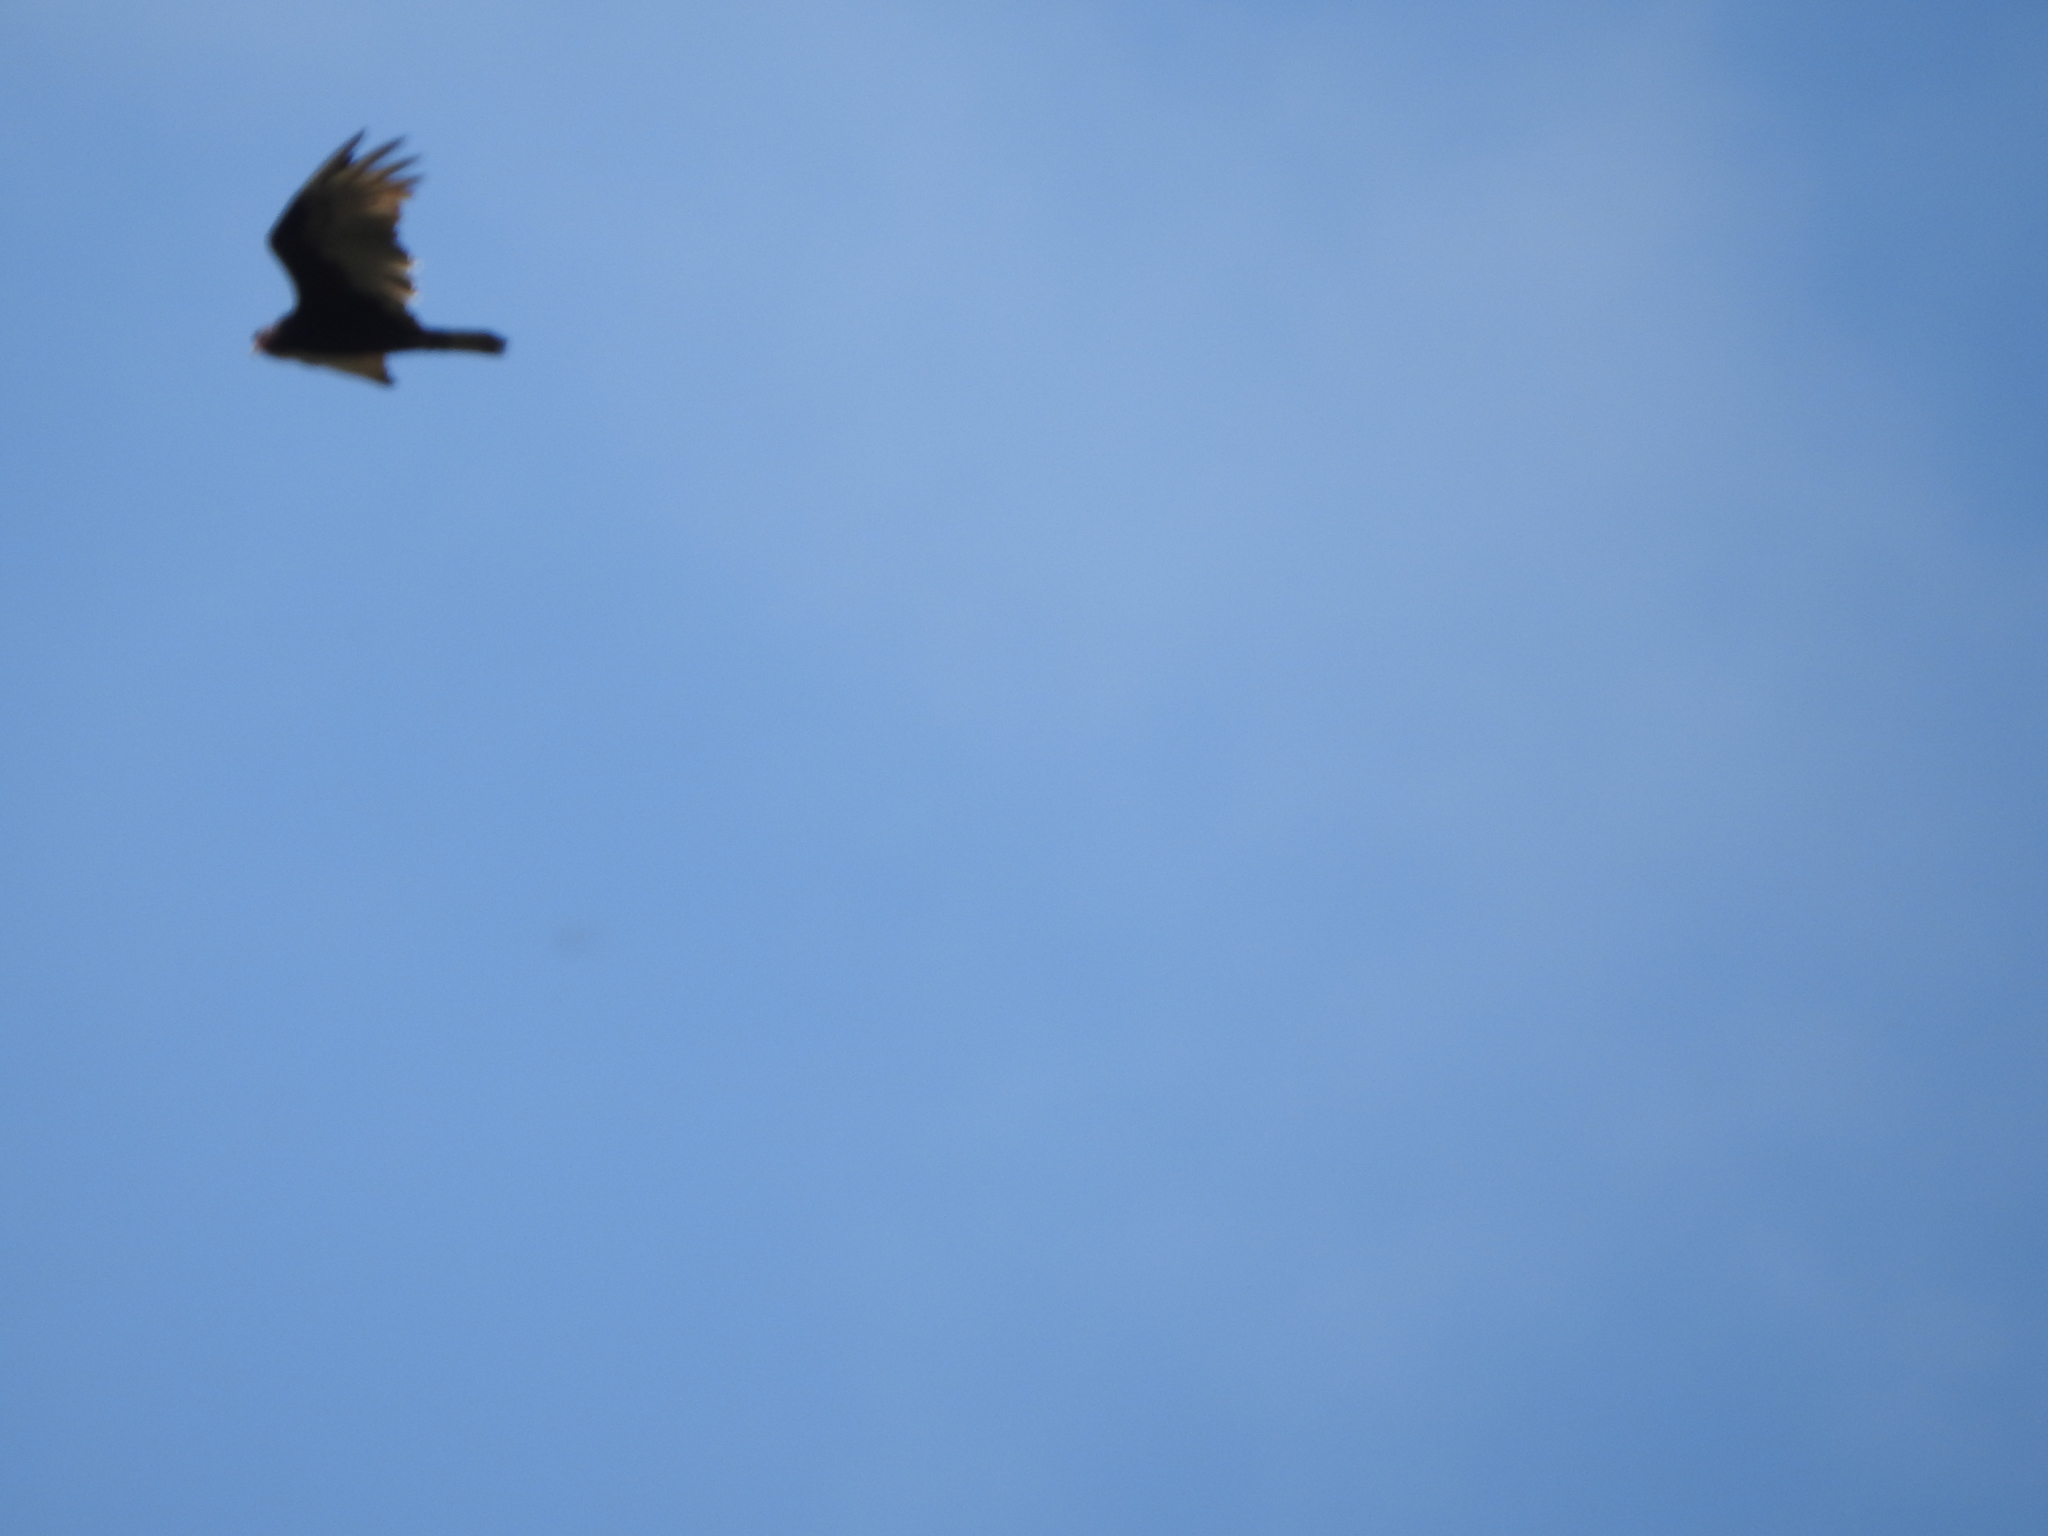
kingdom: Animalia
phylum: Chordata
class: Aves
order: Accipitriformes
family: Cathartidae
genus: Cathartes
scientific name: Cathartes aura
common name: Turkey vulture
